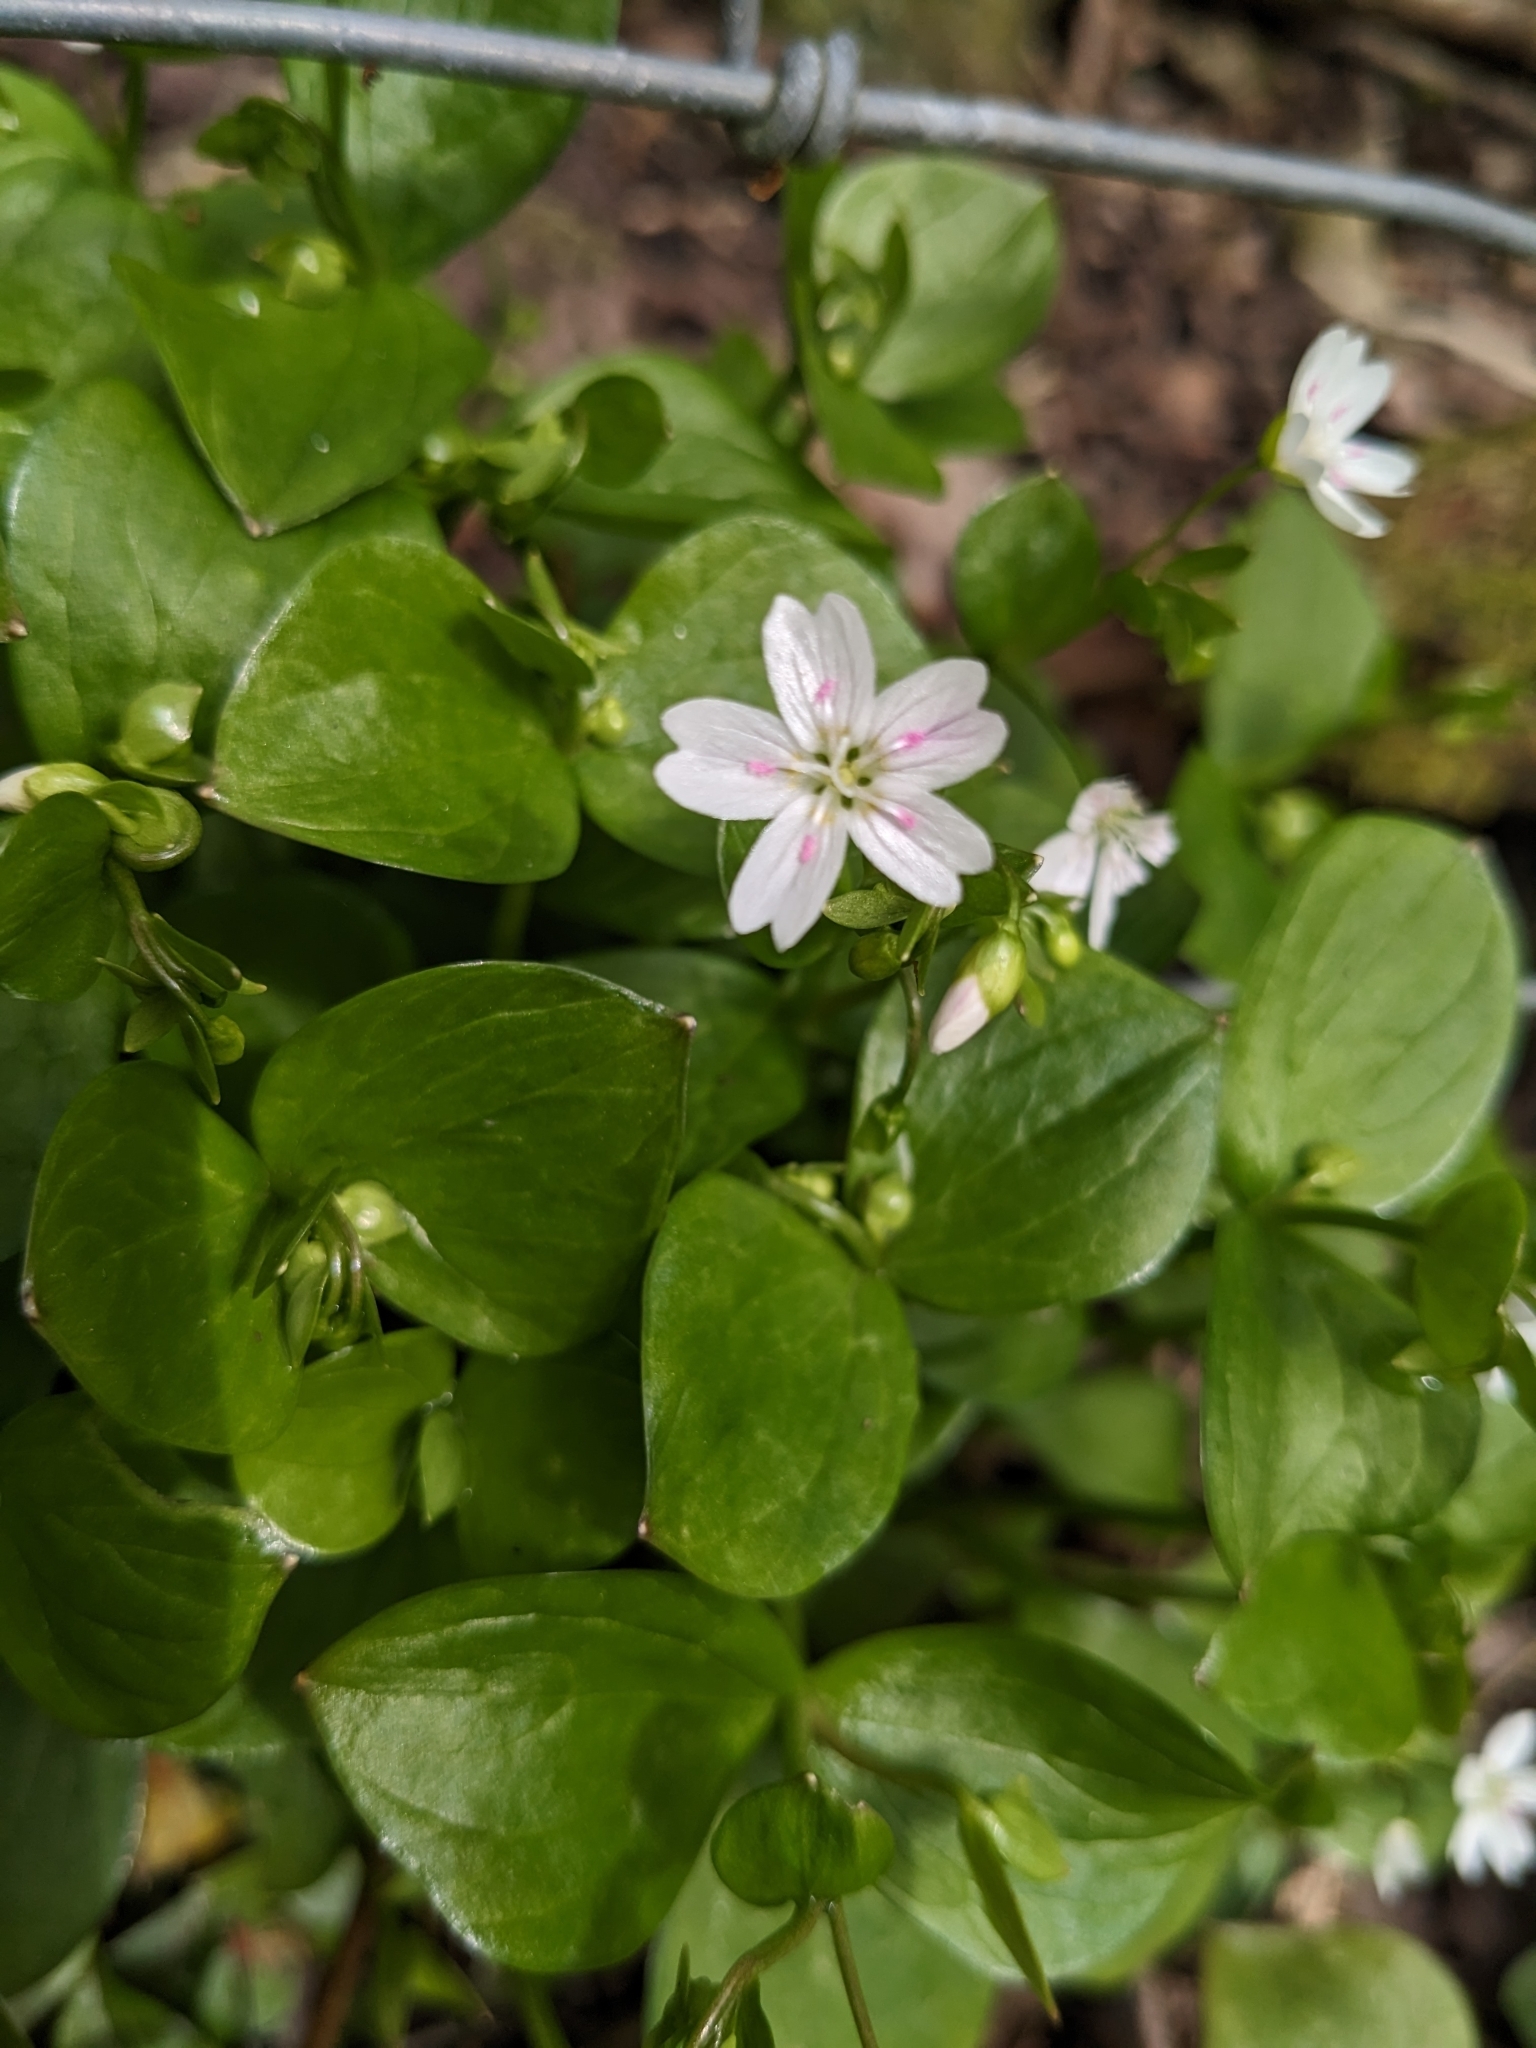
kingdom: Plantae
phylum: Tracheophyta
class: Magnoliopsida
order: Caryophyllales
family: Montiaceae
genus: Claytonia
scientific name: Claytonia sibirica
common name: Pink purslane
